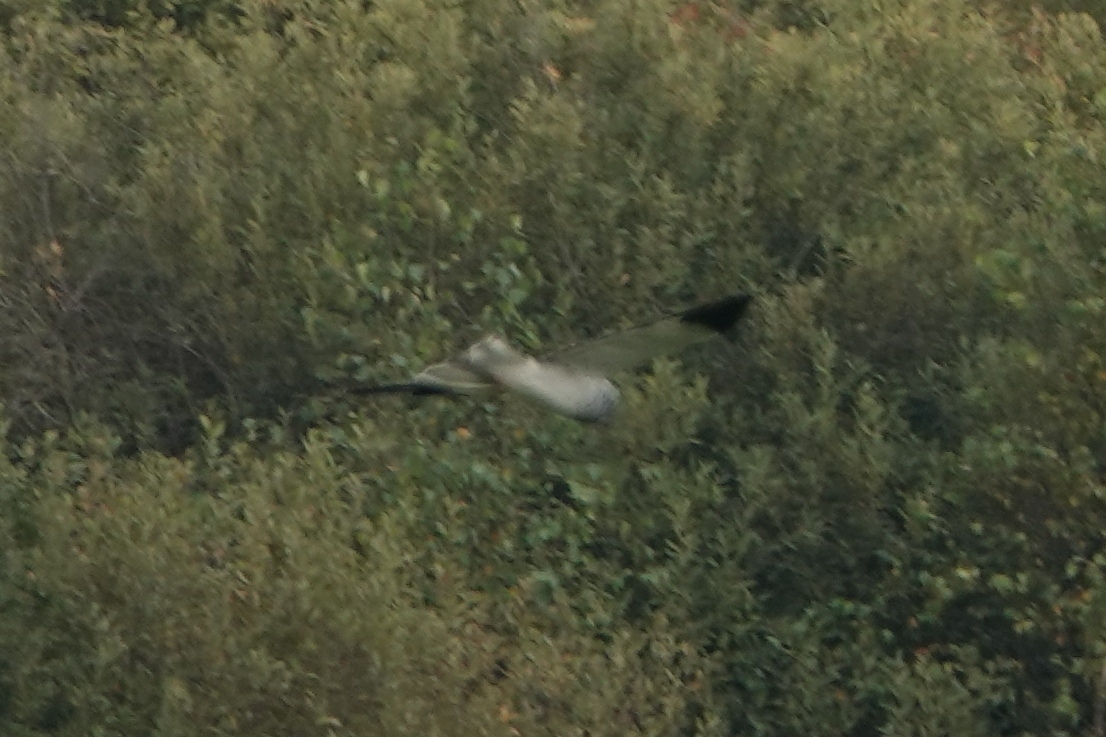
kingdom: Animalia
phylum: Chordata
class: Aves
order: Accipitriformes
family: Accipitridae
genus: Circus
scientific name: Circus cyaneus
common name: Hen harrier
